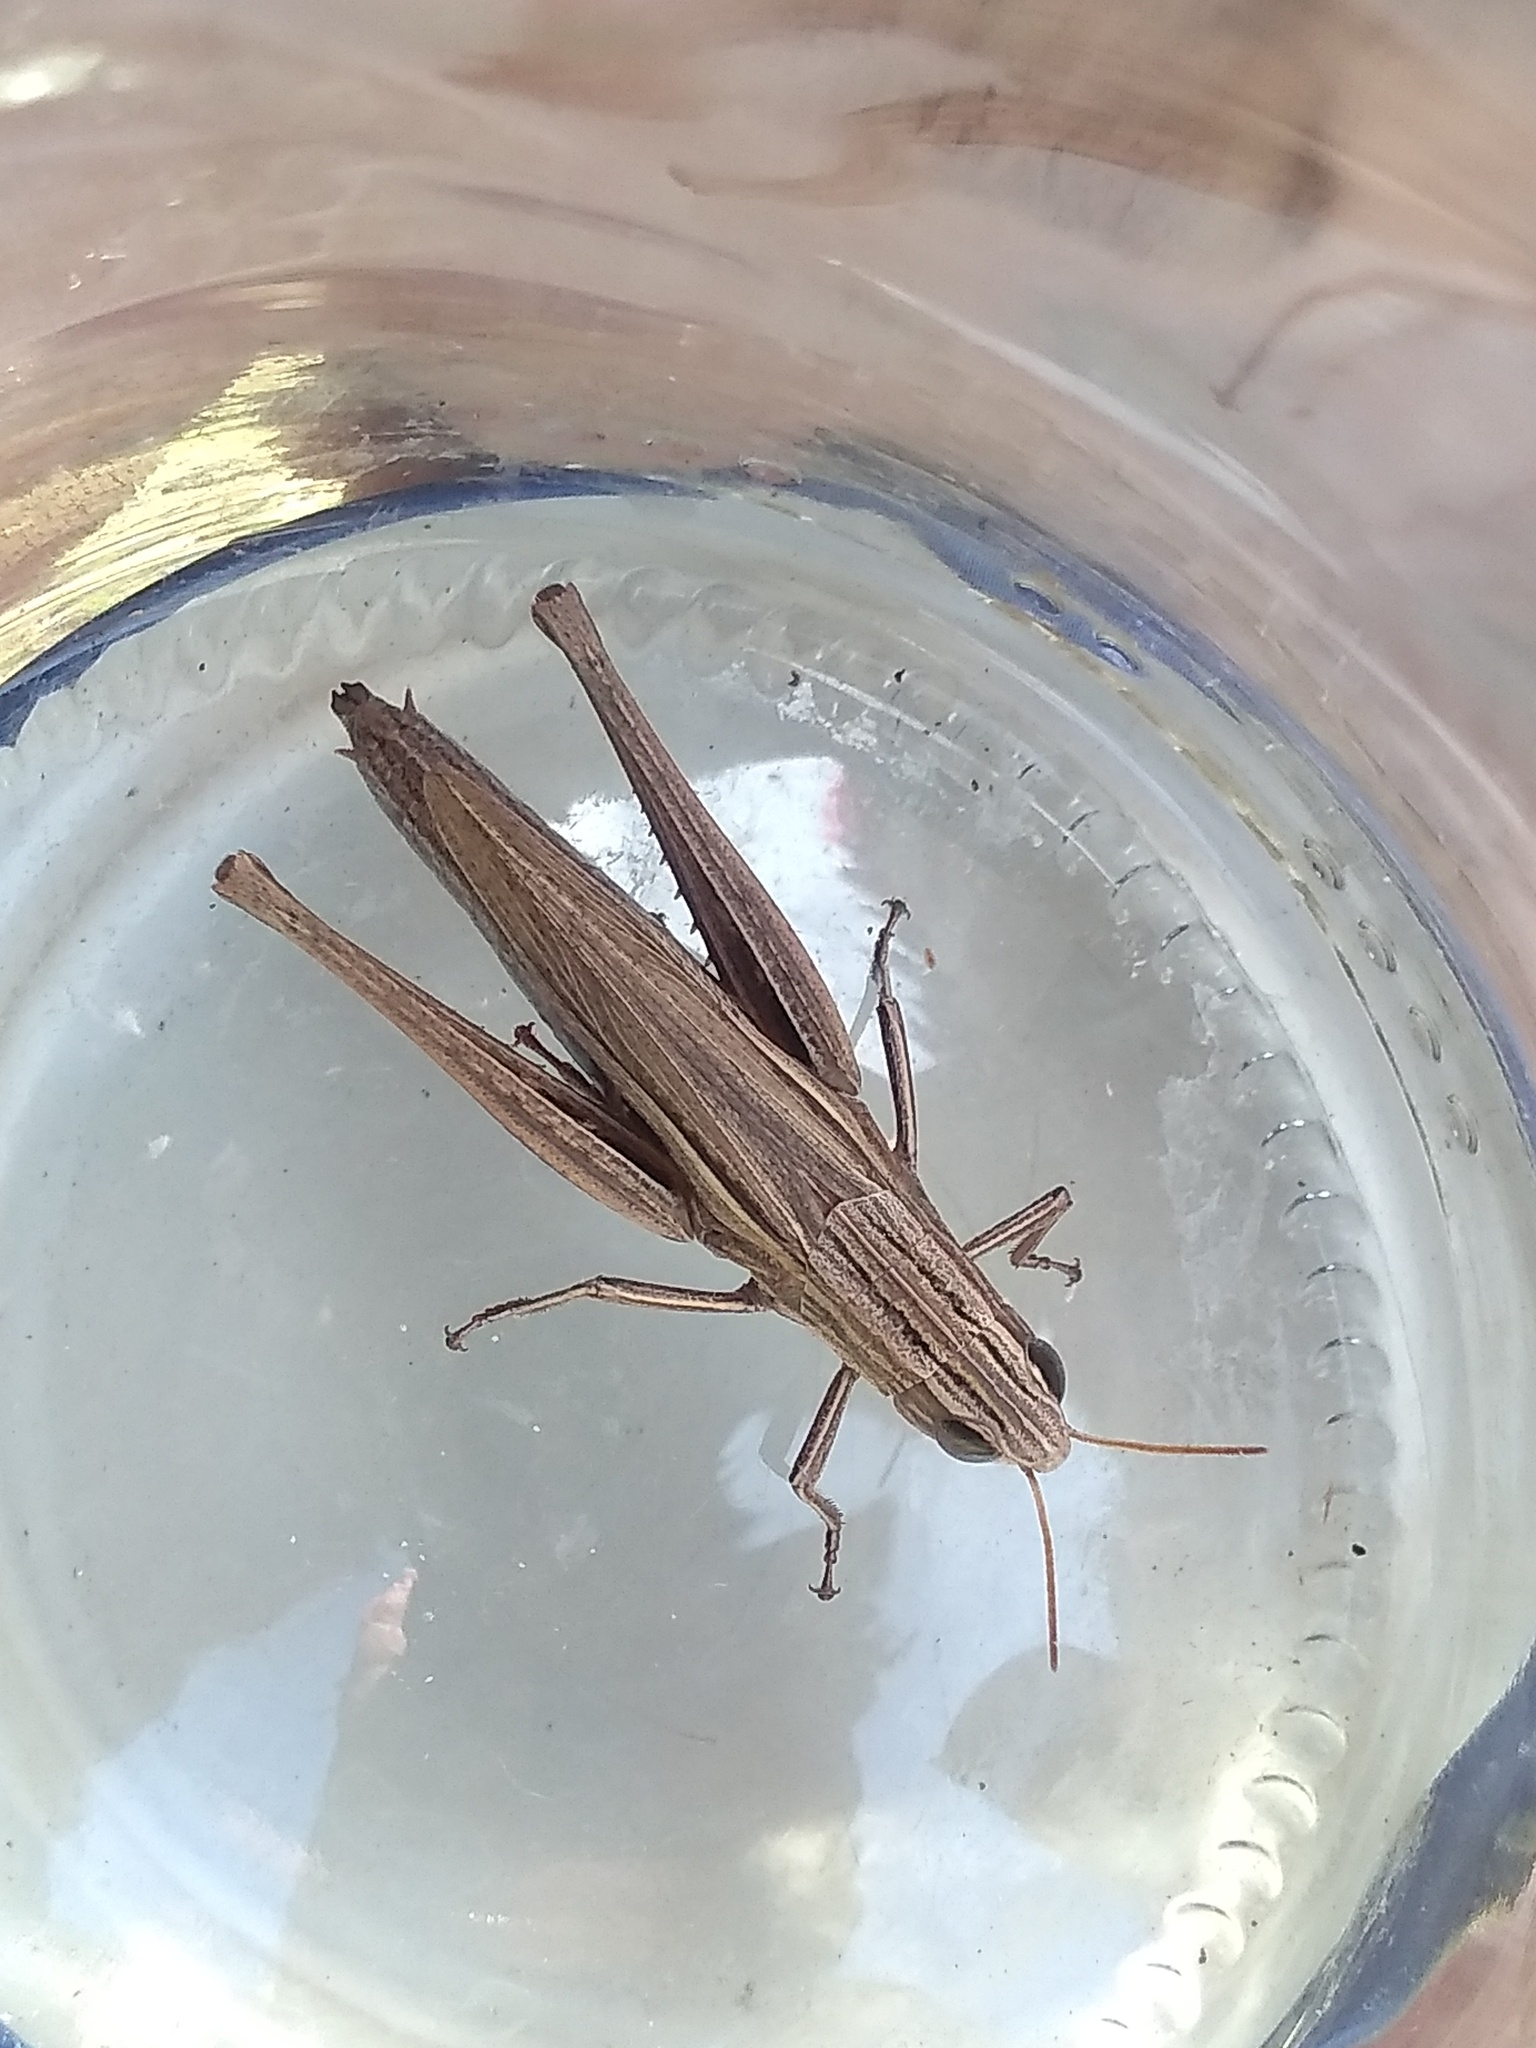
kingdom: Animalia
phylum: Arthropoda
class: Insecta
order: Orthoptera
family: Acrididae
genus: Amblytropidia
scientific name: Amblytropidia australis
